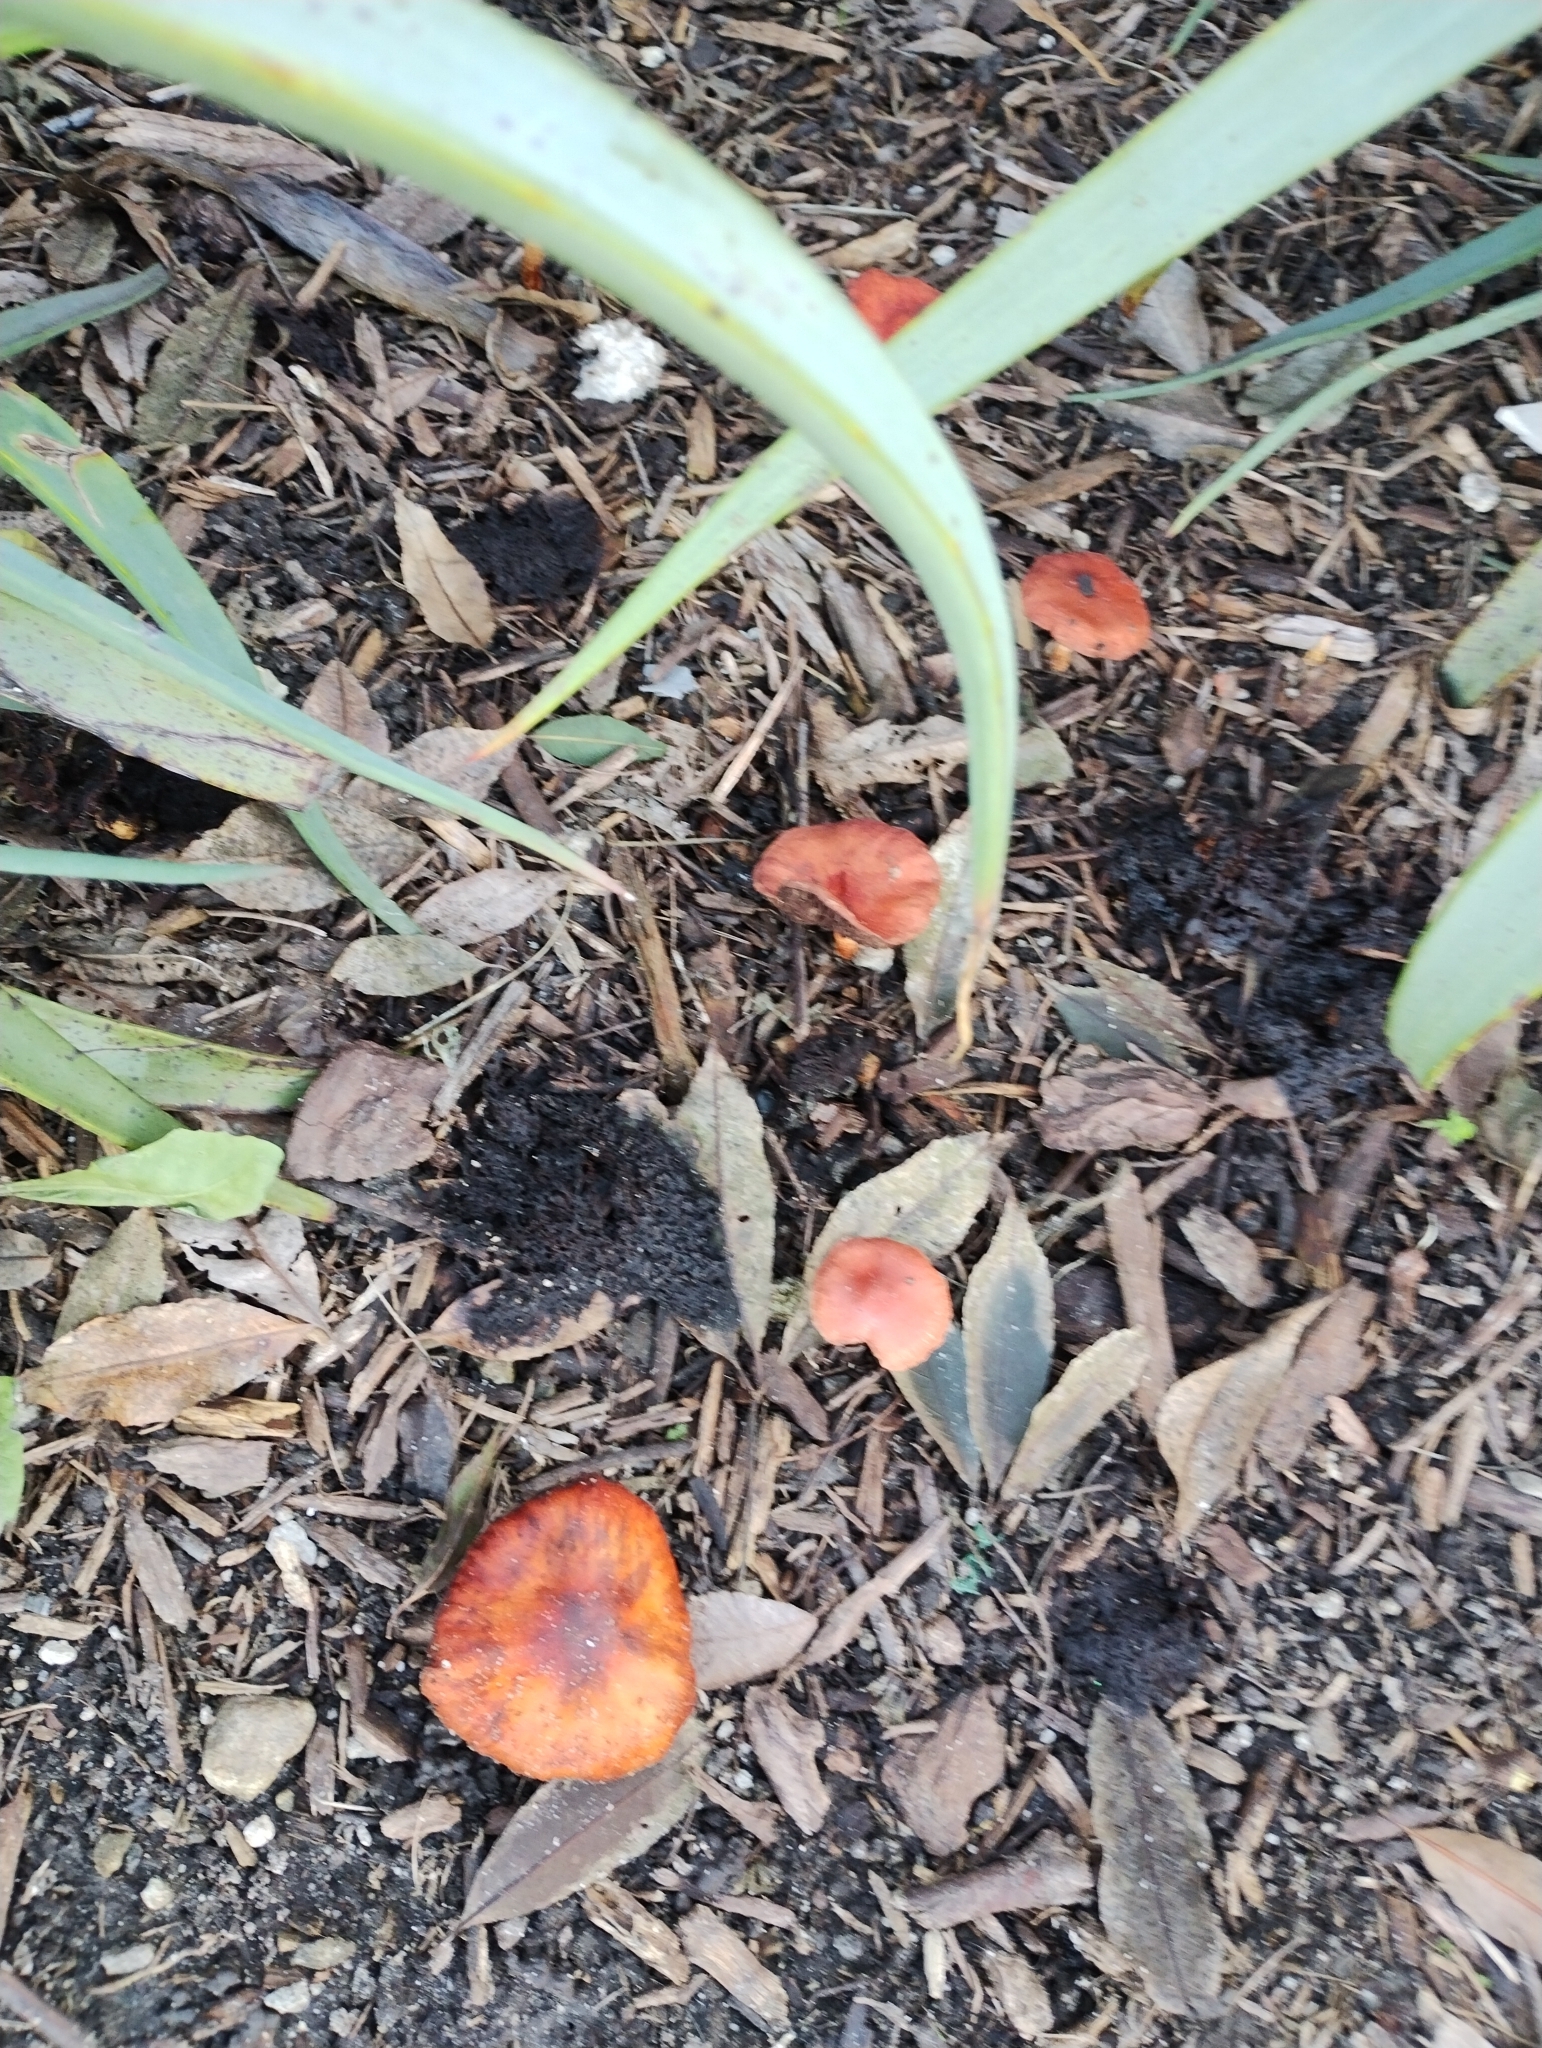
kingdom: Fungi
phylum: Basidiomycota
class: Agaricomycetes
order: Agaricales
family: Strophariaceae
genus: Leratiomyces
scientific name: Leratiomyces ceres
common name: Redlead roundhead
